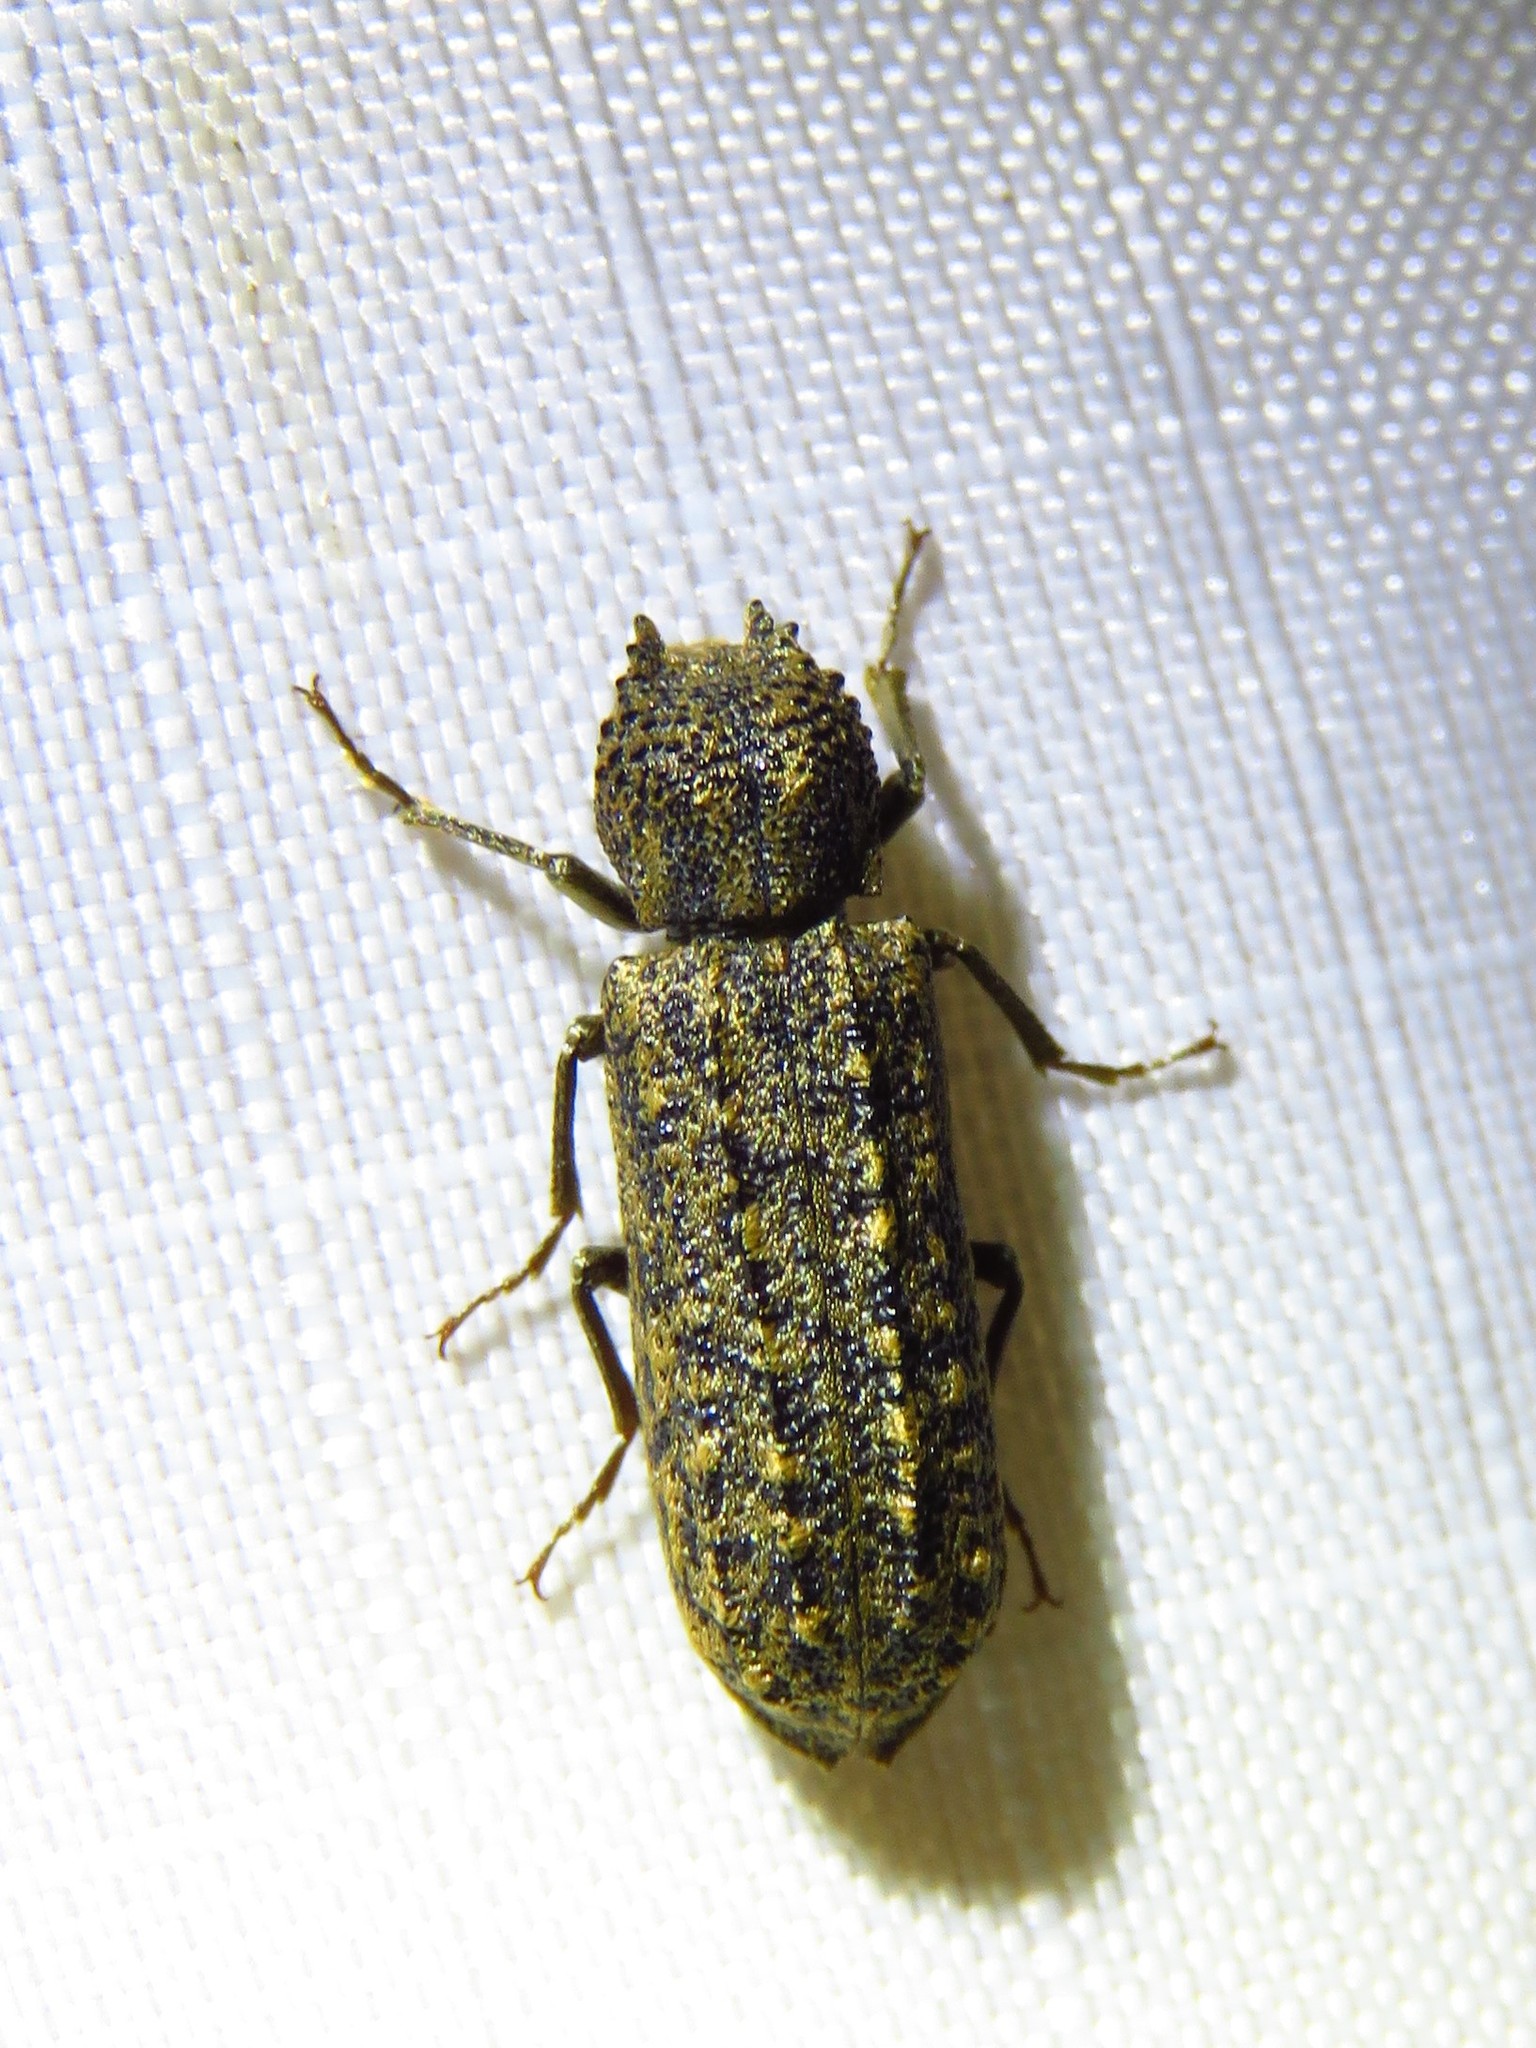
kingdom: Animalia
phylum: Arthropoda
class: Insecta
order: Coleoptera
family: Bostrichidae
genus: Lichenophanes
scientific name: Lichenophanes bicornis
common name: Two-horned powder-post beetle
